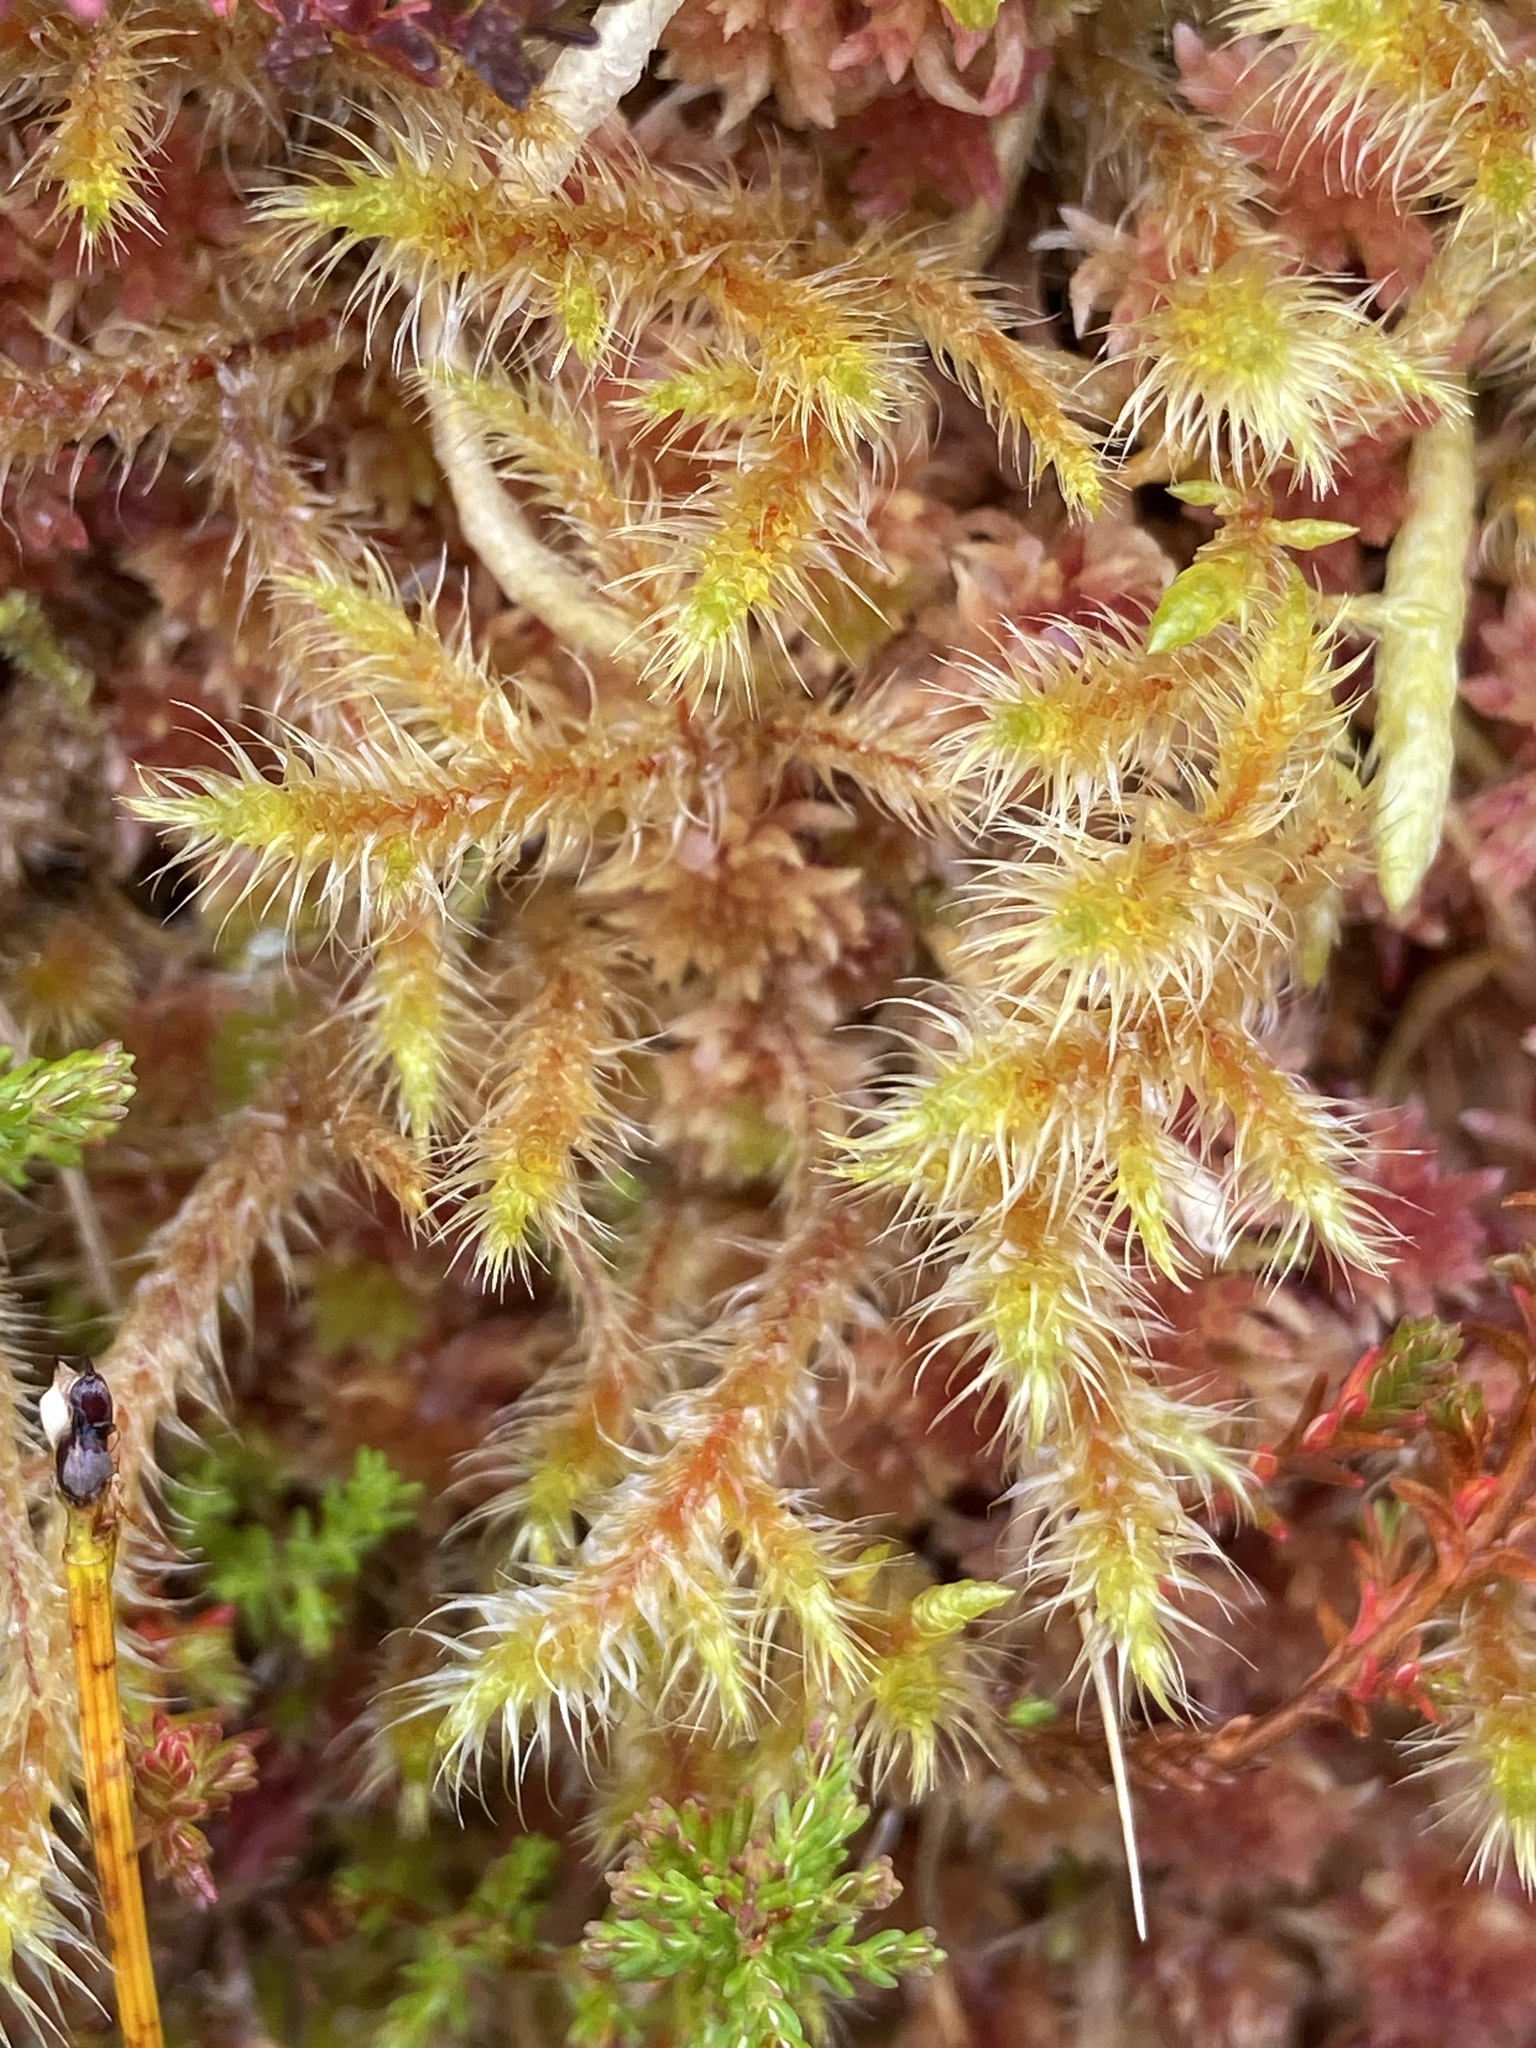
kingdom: Plantae
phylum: Bryophyta
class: Bryopsida
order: Hypnales
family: Hylocomiaceae
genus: Rhytidiadelphus
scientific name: Rhytidiadelphus loreus
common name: Lanky moss
